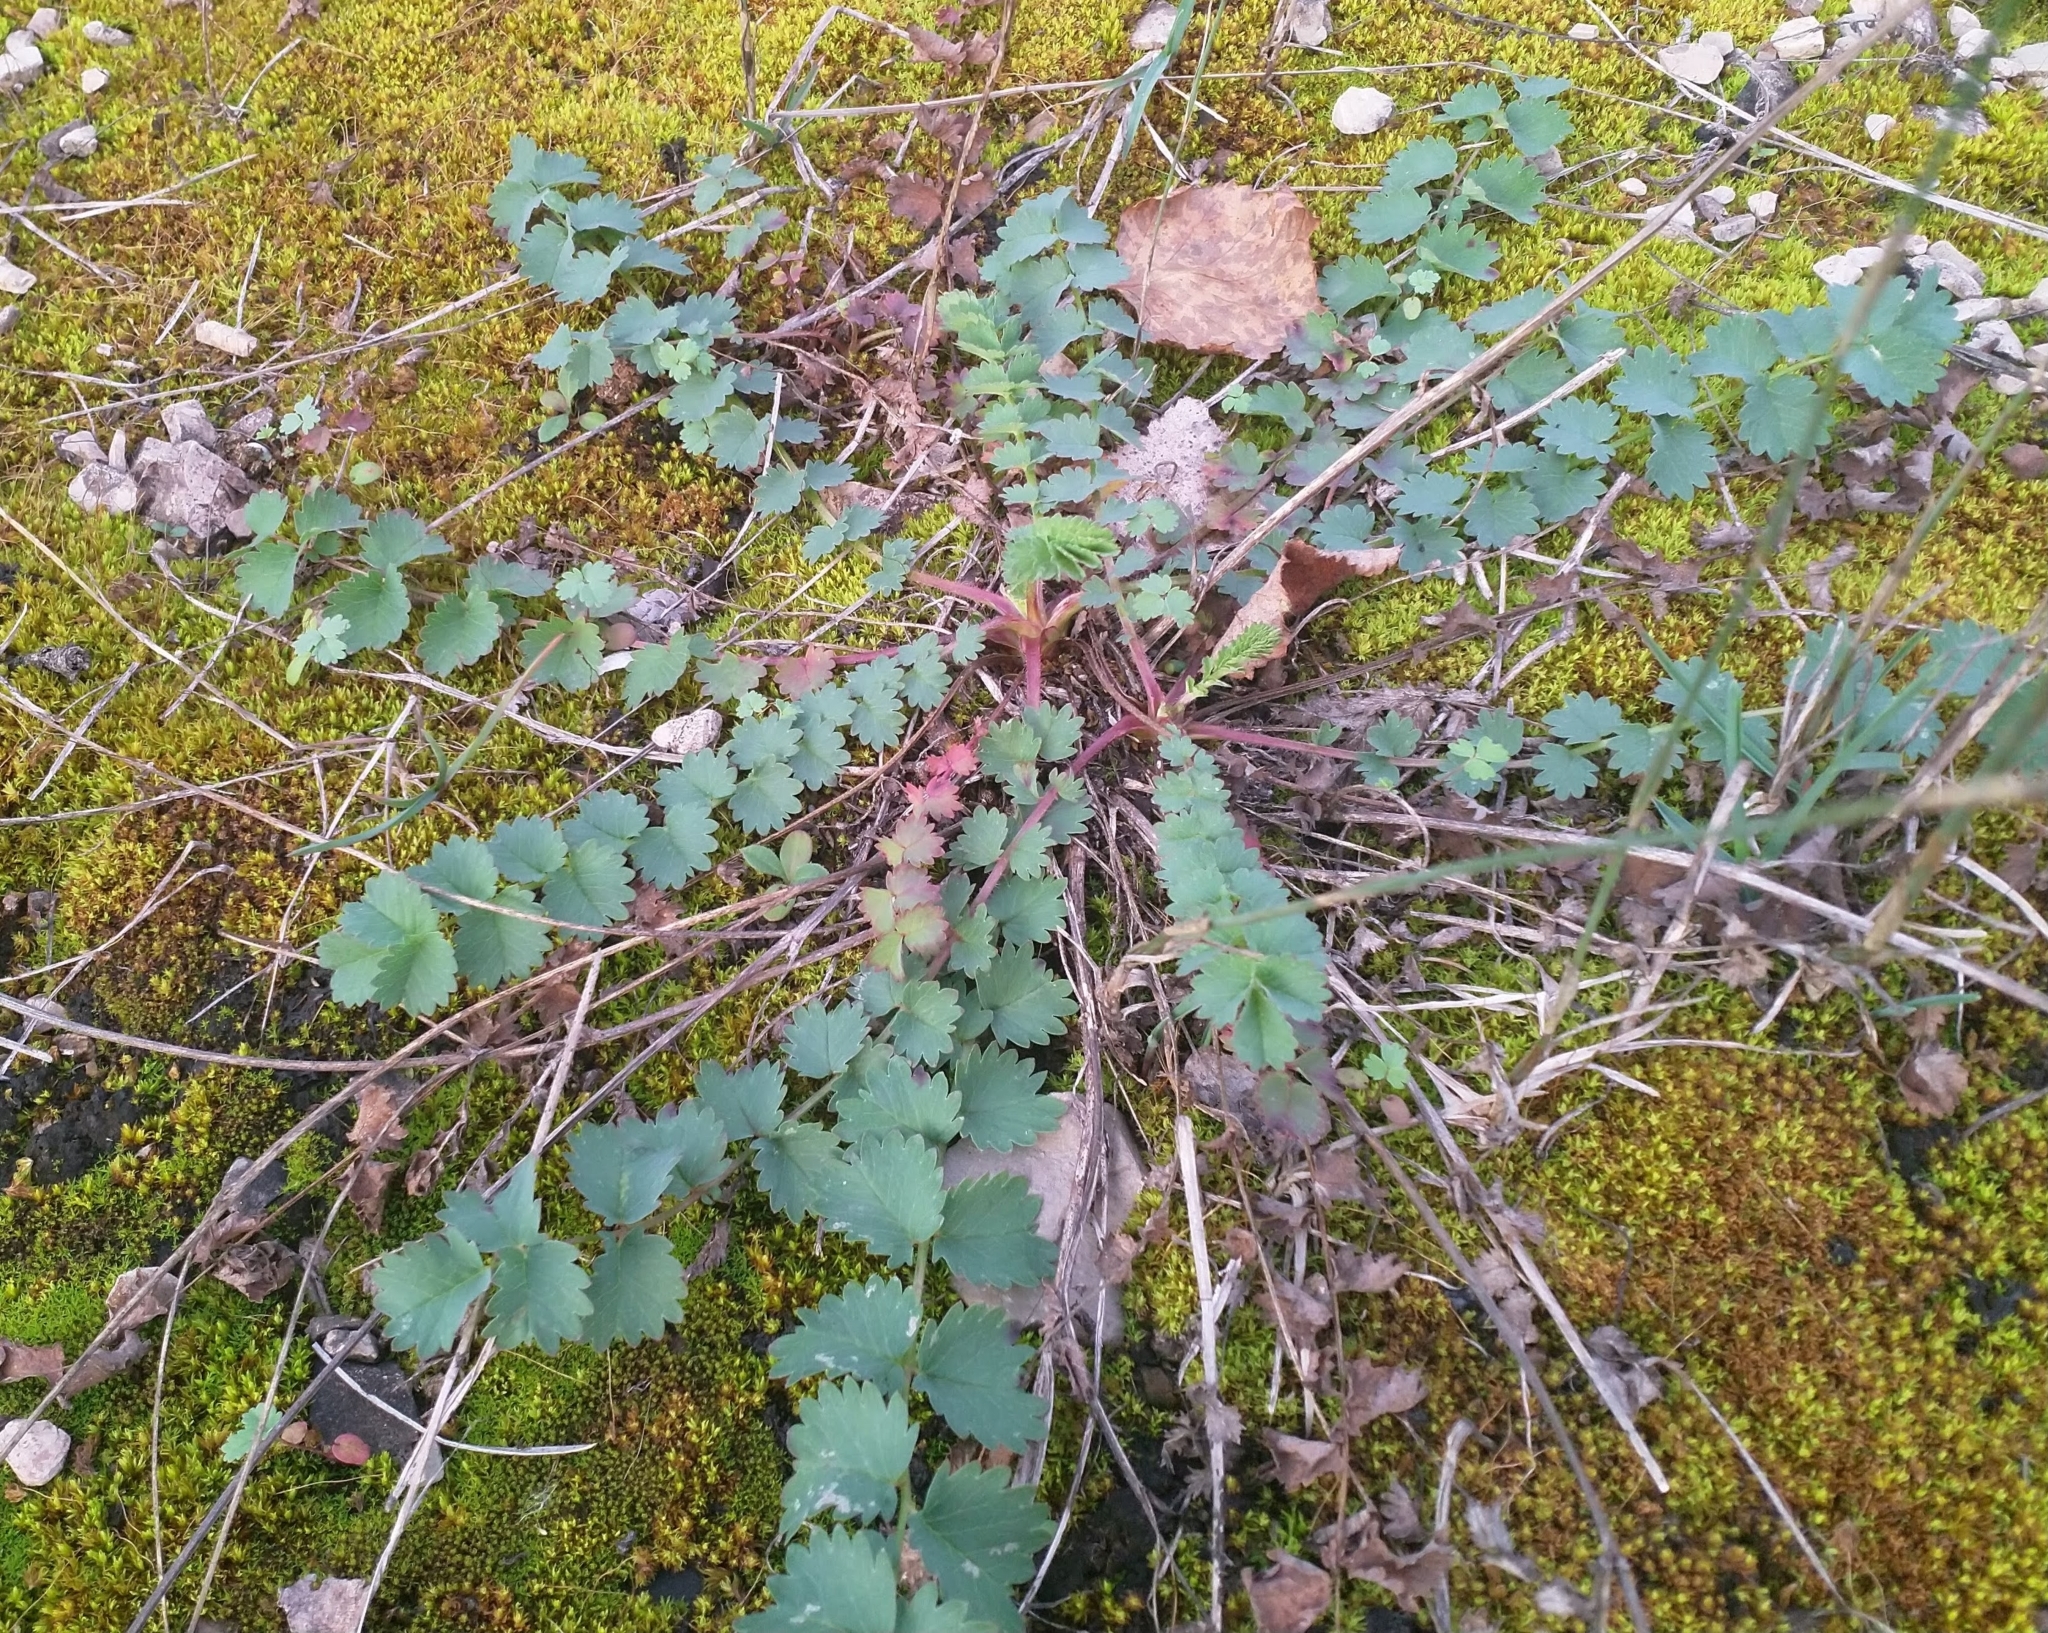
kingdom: Plantae
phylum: Tracheophyta
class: Magnoliopsida
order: Rosales
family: Rosaceae
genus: Poterium
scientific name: Poterium sanguisorba
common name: Salad burnet
